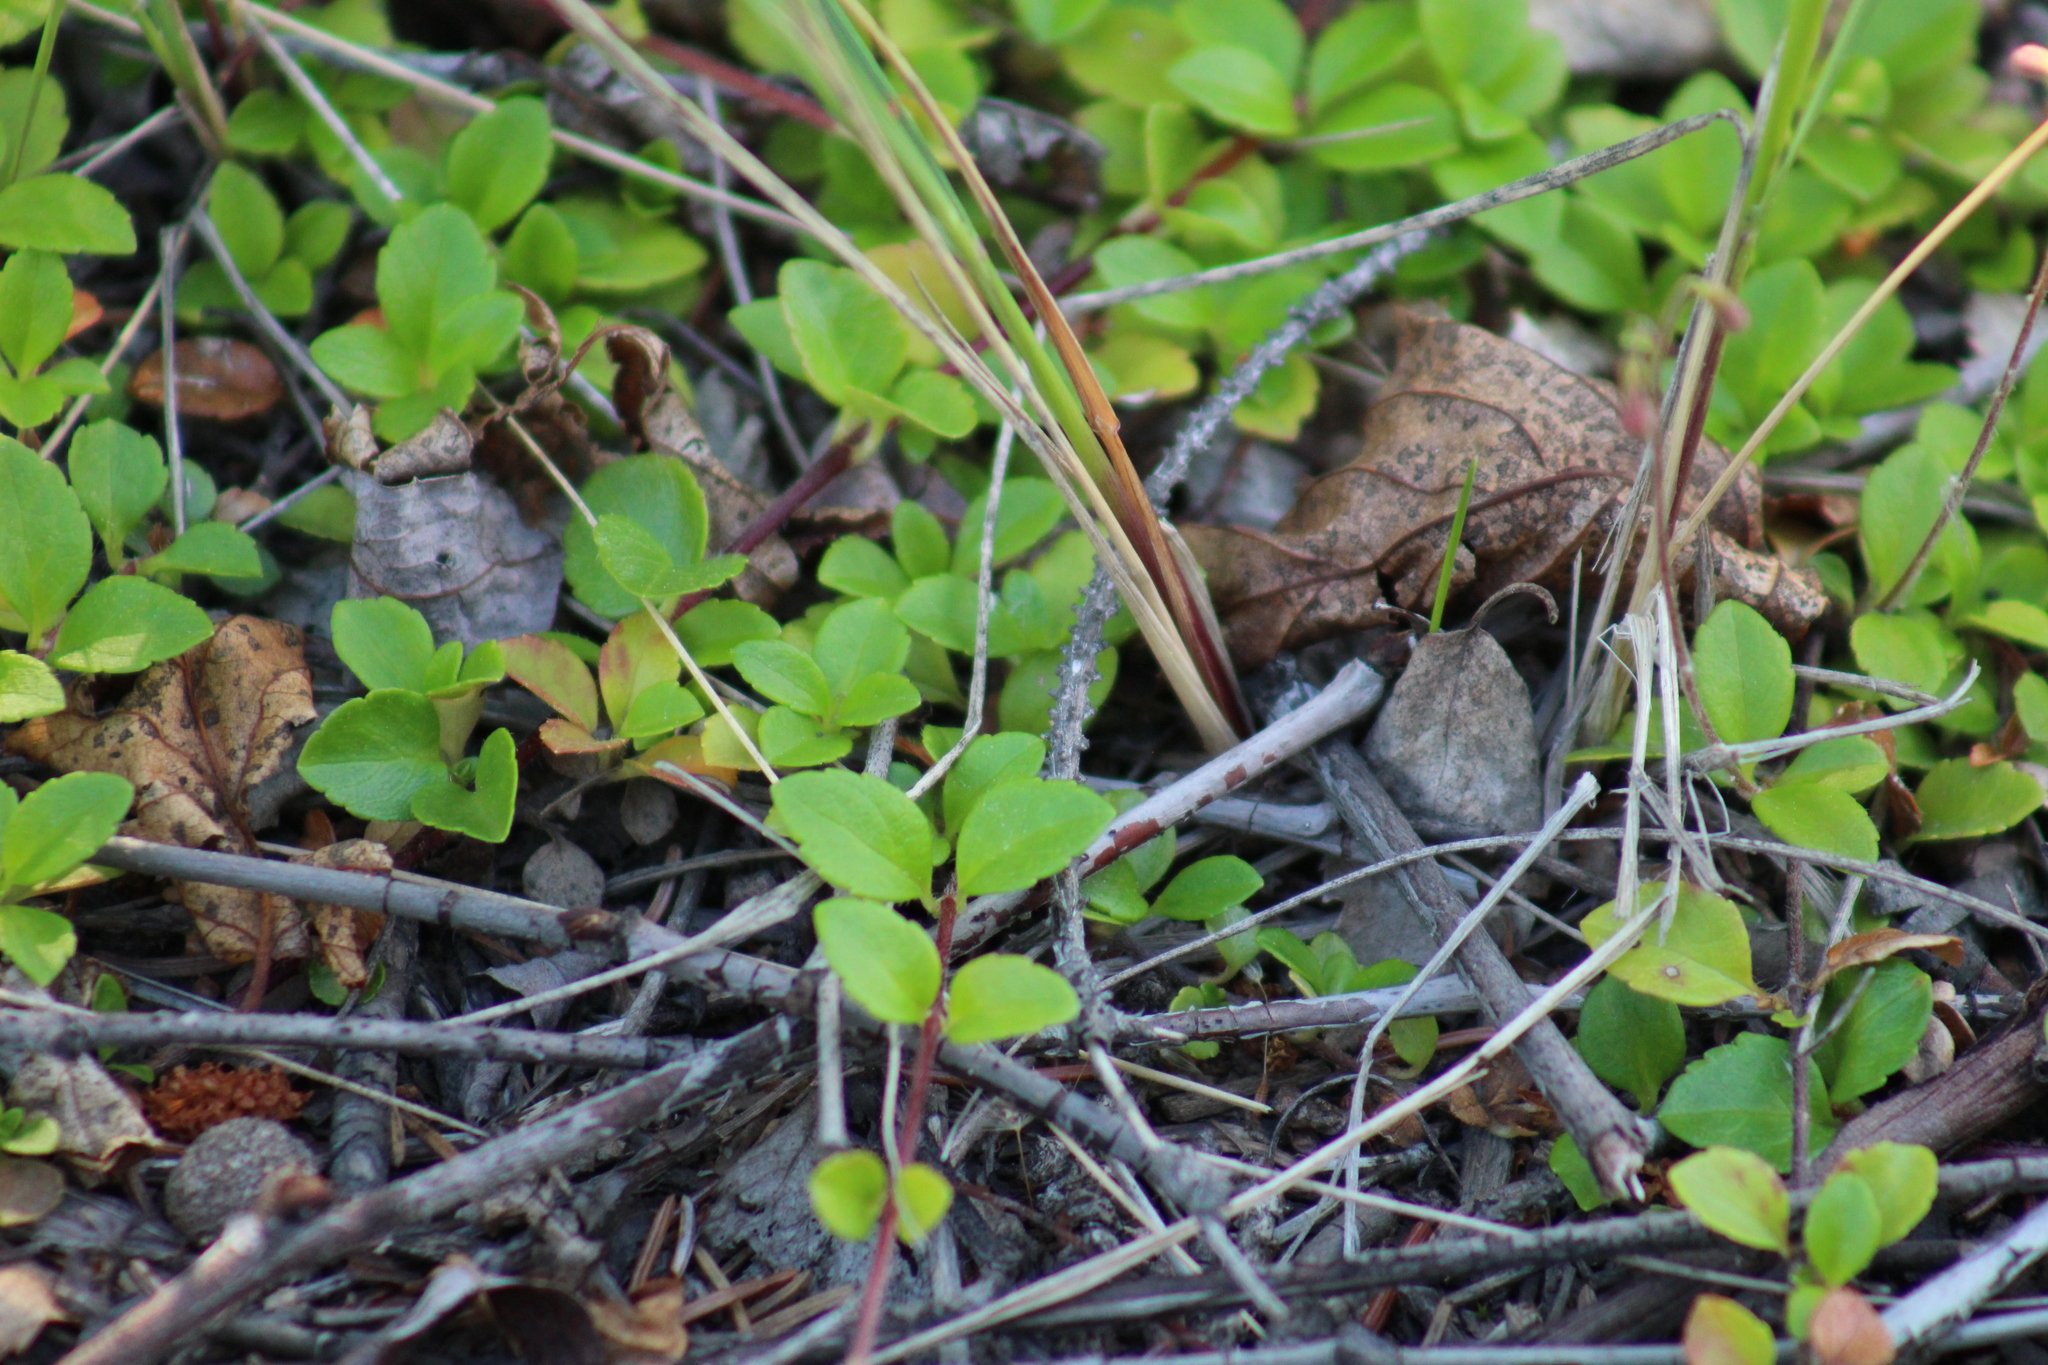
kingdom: Plantae
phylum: Tracheophyta
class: Magnoliopsida
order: Dipsacales
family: Caprifoliaceae
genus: Linnaea
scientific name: Linnaea borealis
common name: Twinflower
